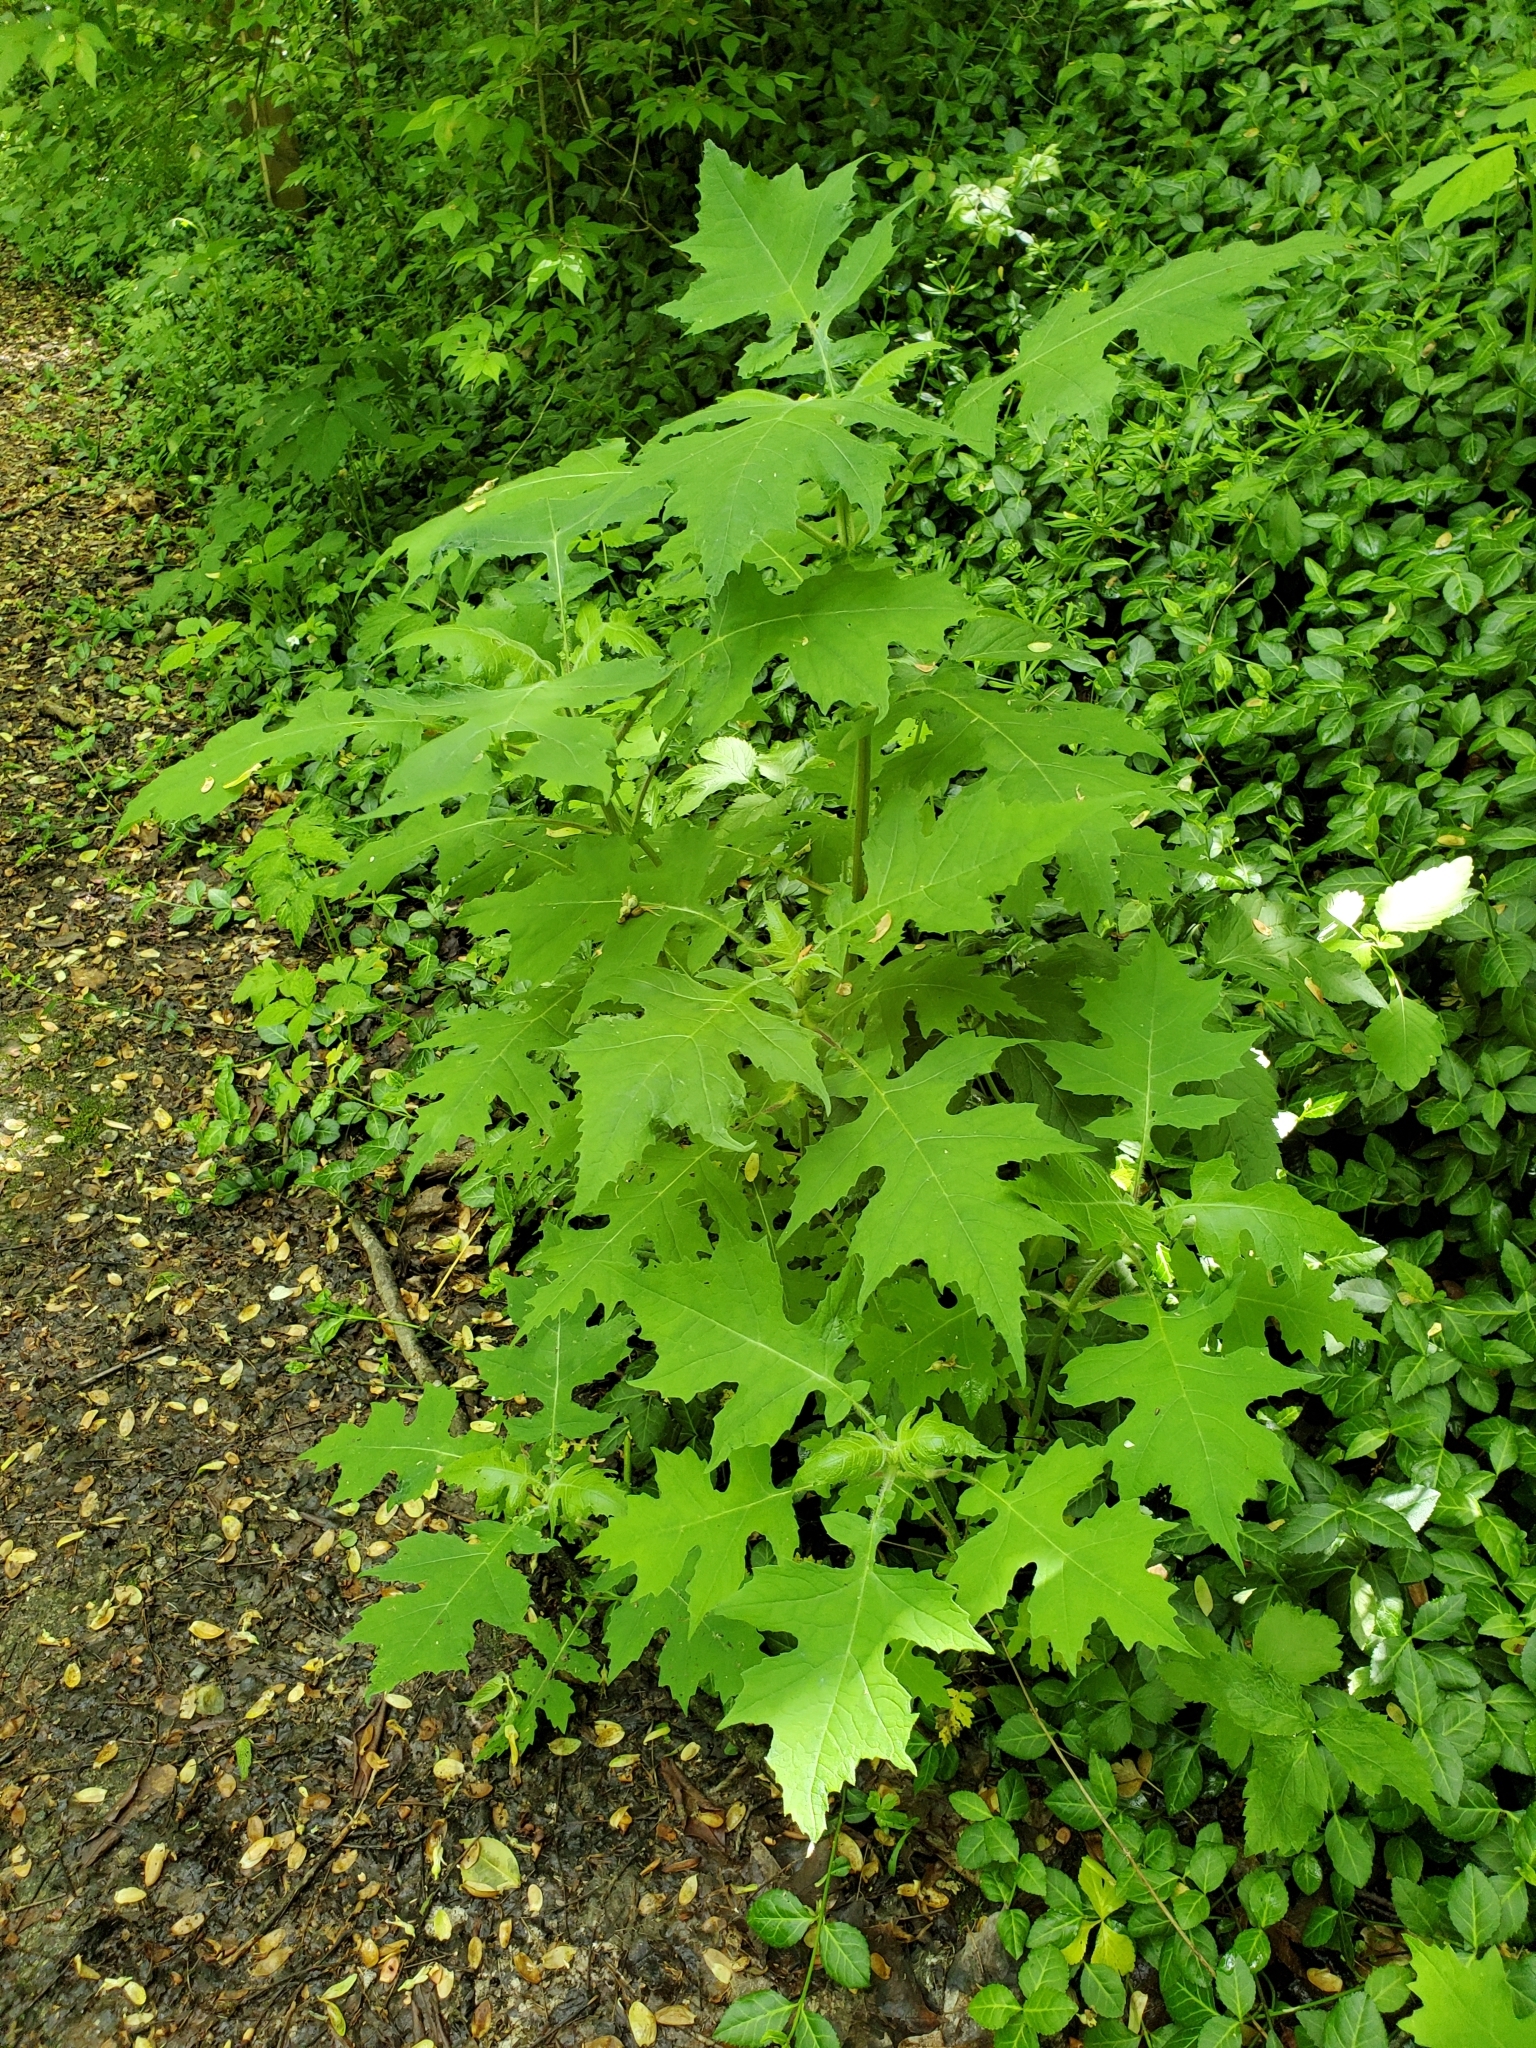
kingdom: Plantae
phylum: Tracheophyta
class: Magnoliopsida
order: Asterales
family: Asteraceae
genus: Smallanthus
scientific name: Smallanthus uvedalia
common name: Bear's-foot
